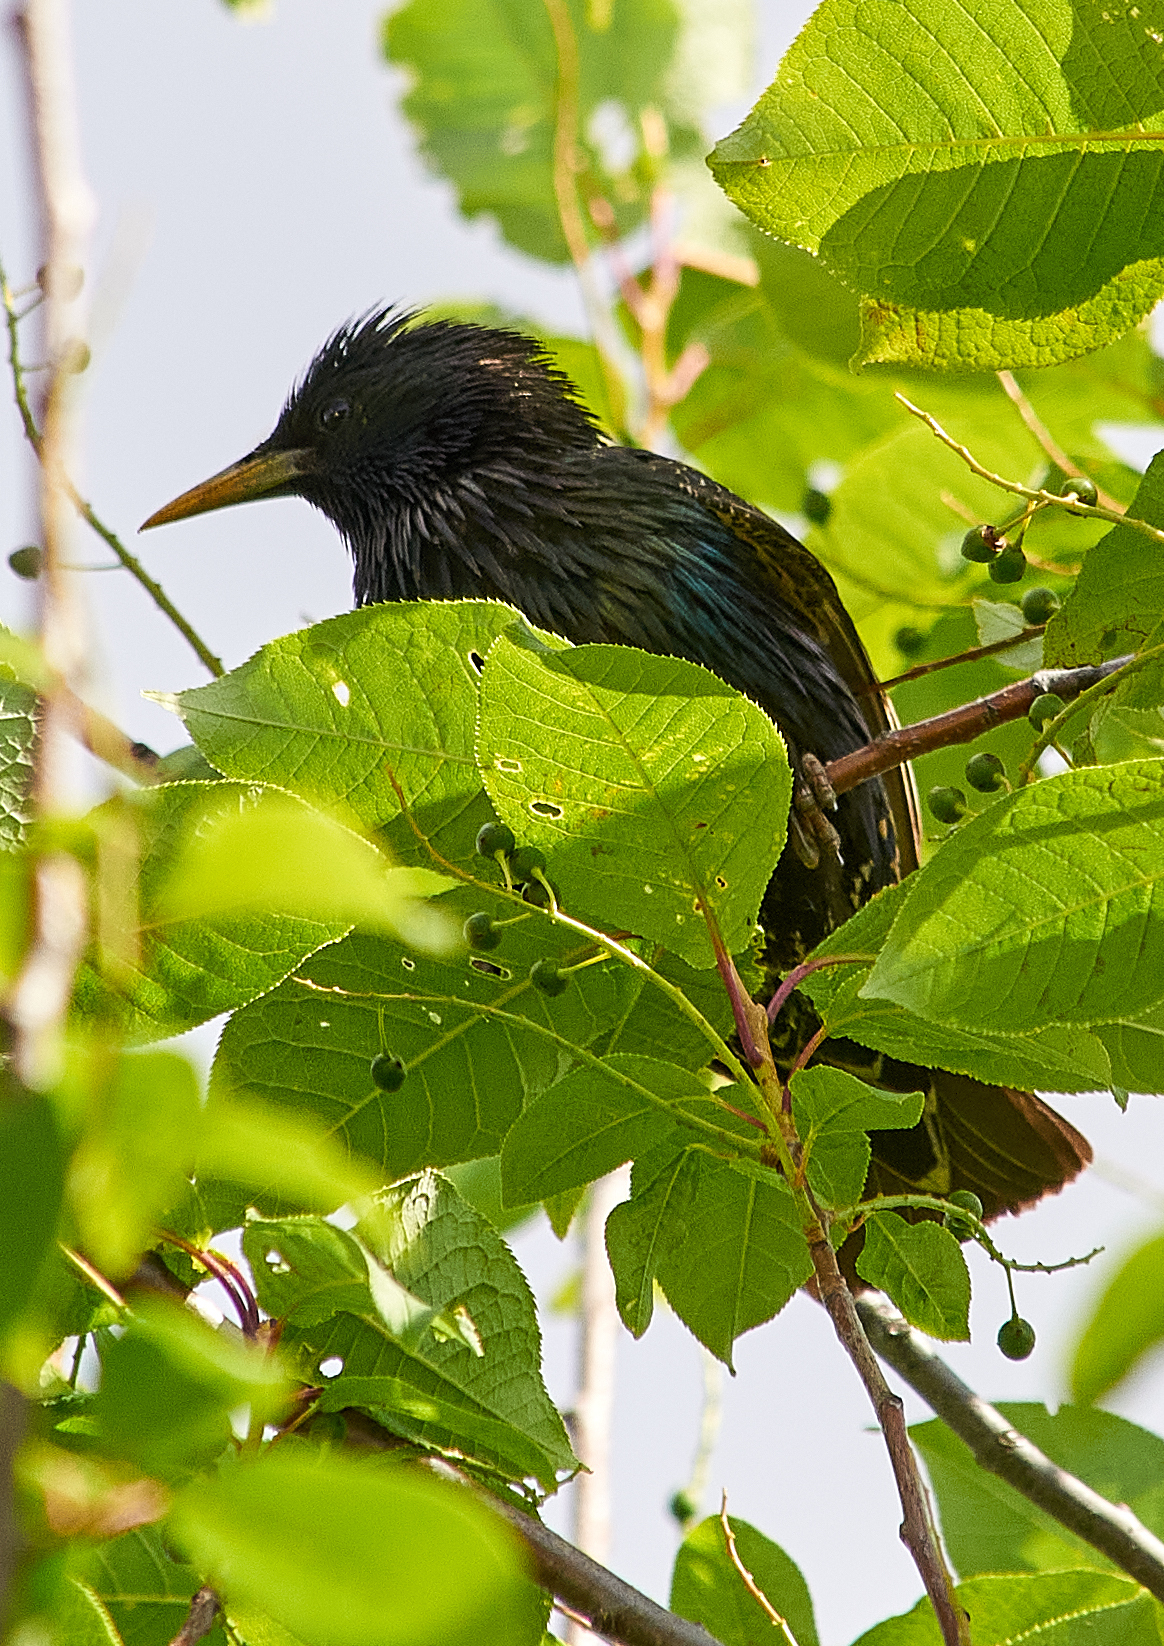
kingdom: Animalia
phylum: Chordata
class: Aves
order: Passeriformes
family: Sturnidae
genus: Sturnus
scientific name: Sturnus vulgaris
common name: Common starling
